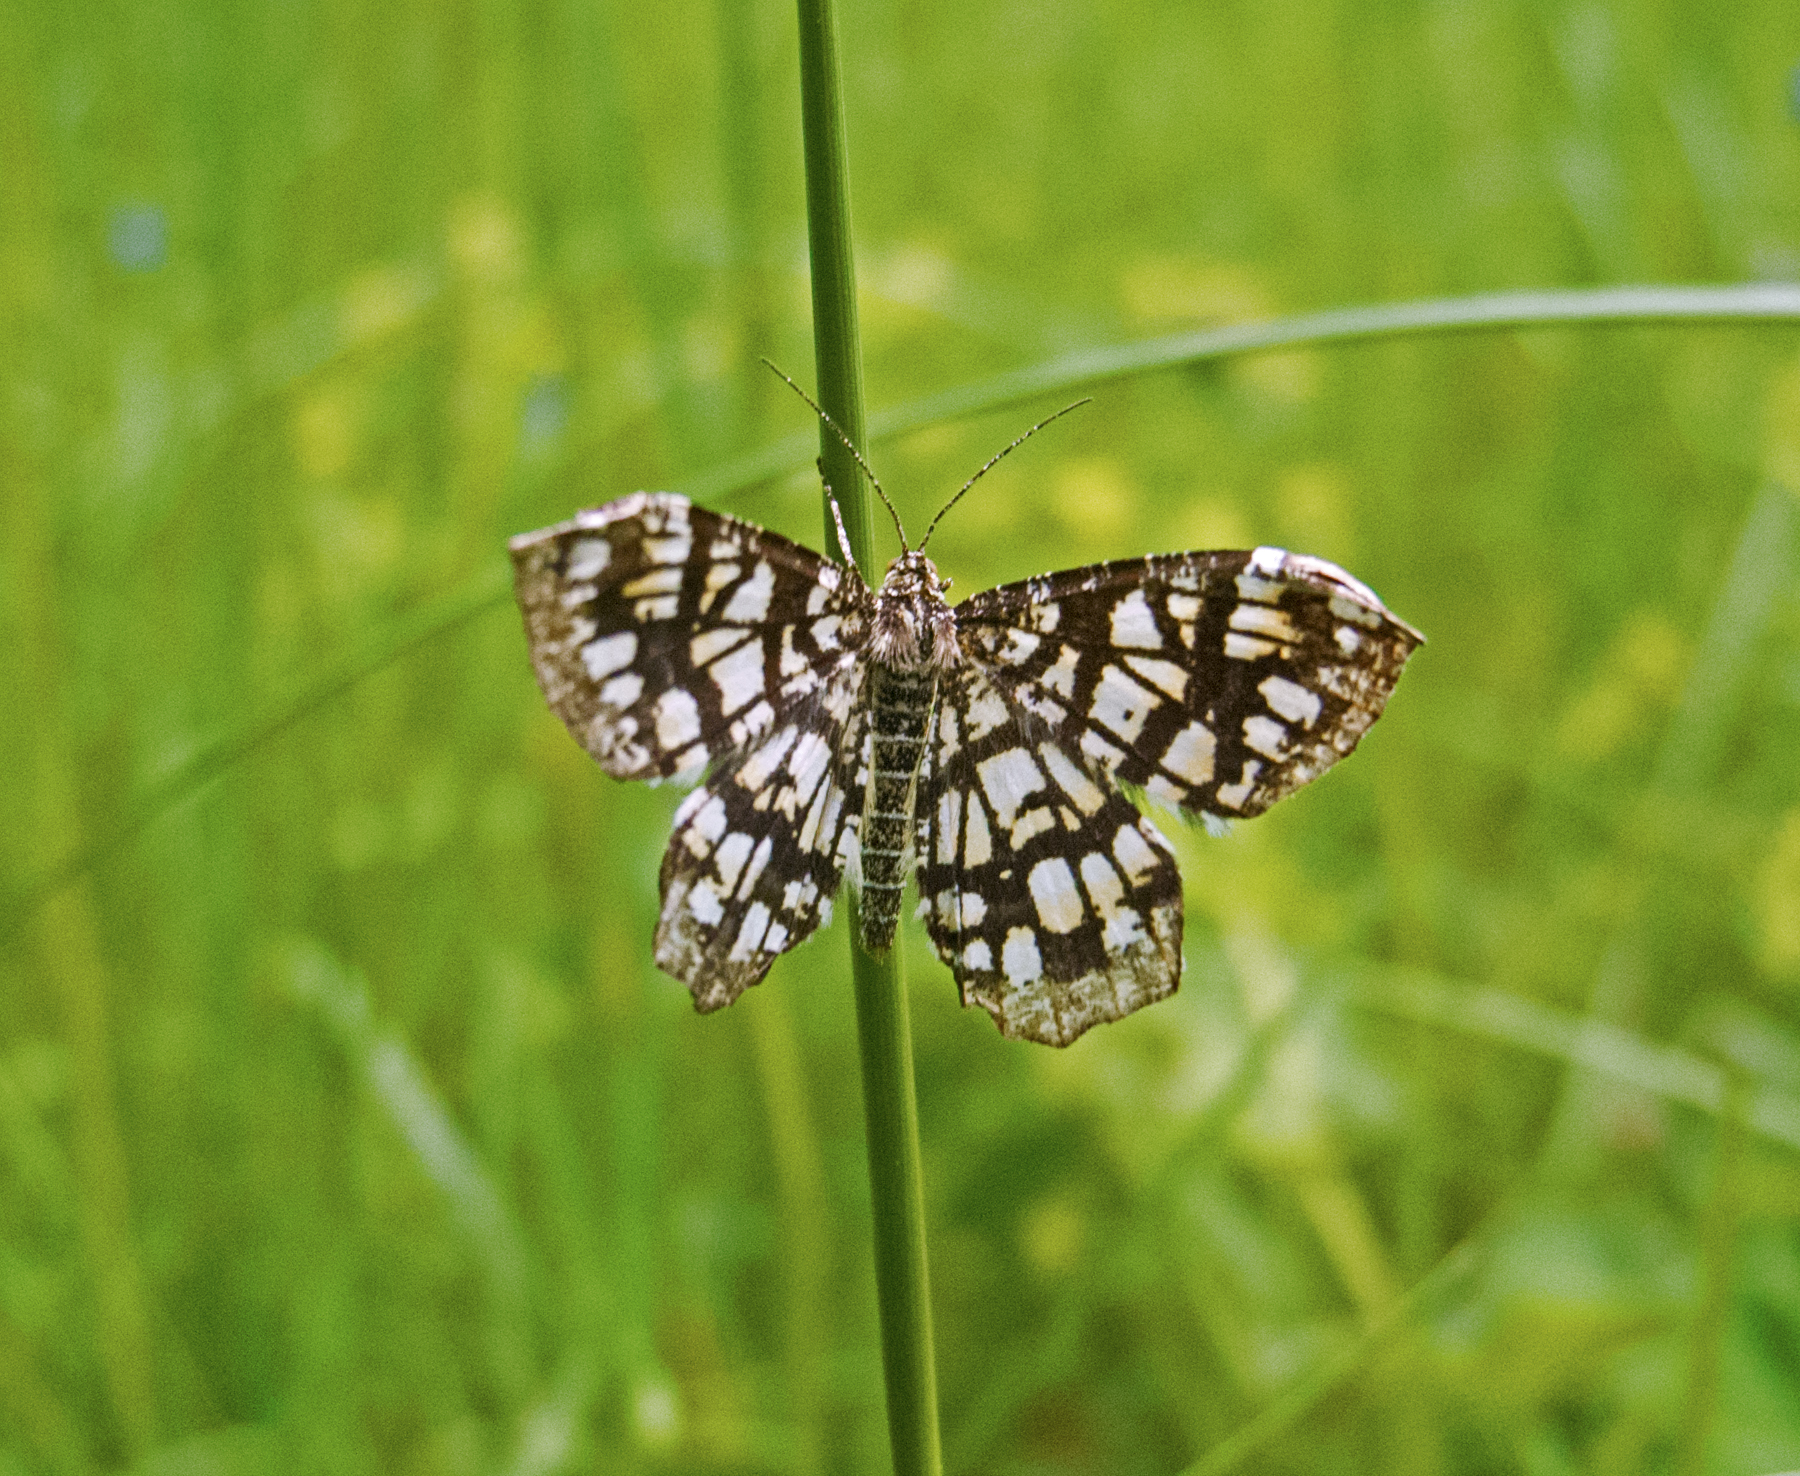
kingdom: Animalia
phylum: Arthropoda
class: Insecta
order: Lepidoptera
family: Geometridae
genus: Chiasmia
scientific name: Chiasmia clathrata
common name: Latticed heath
